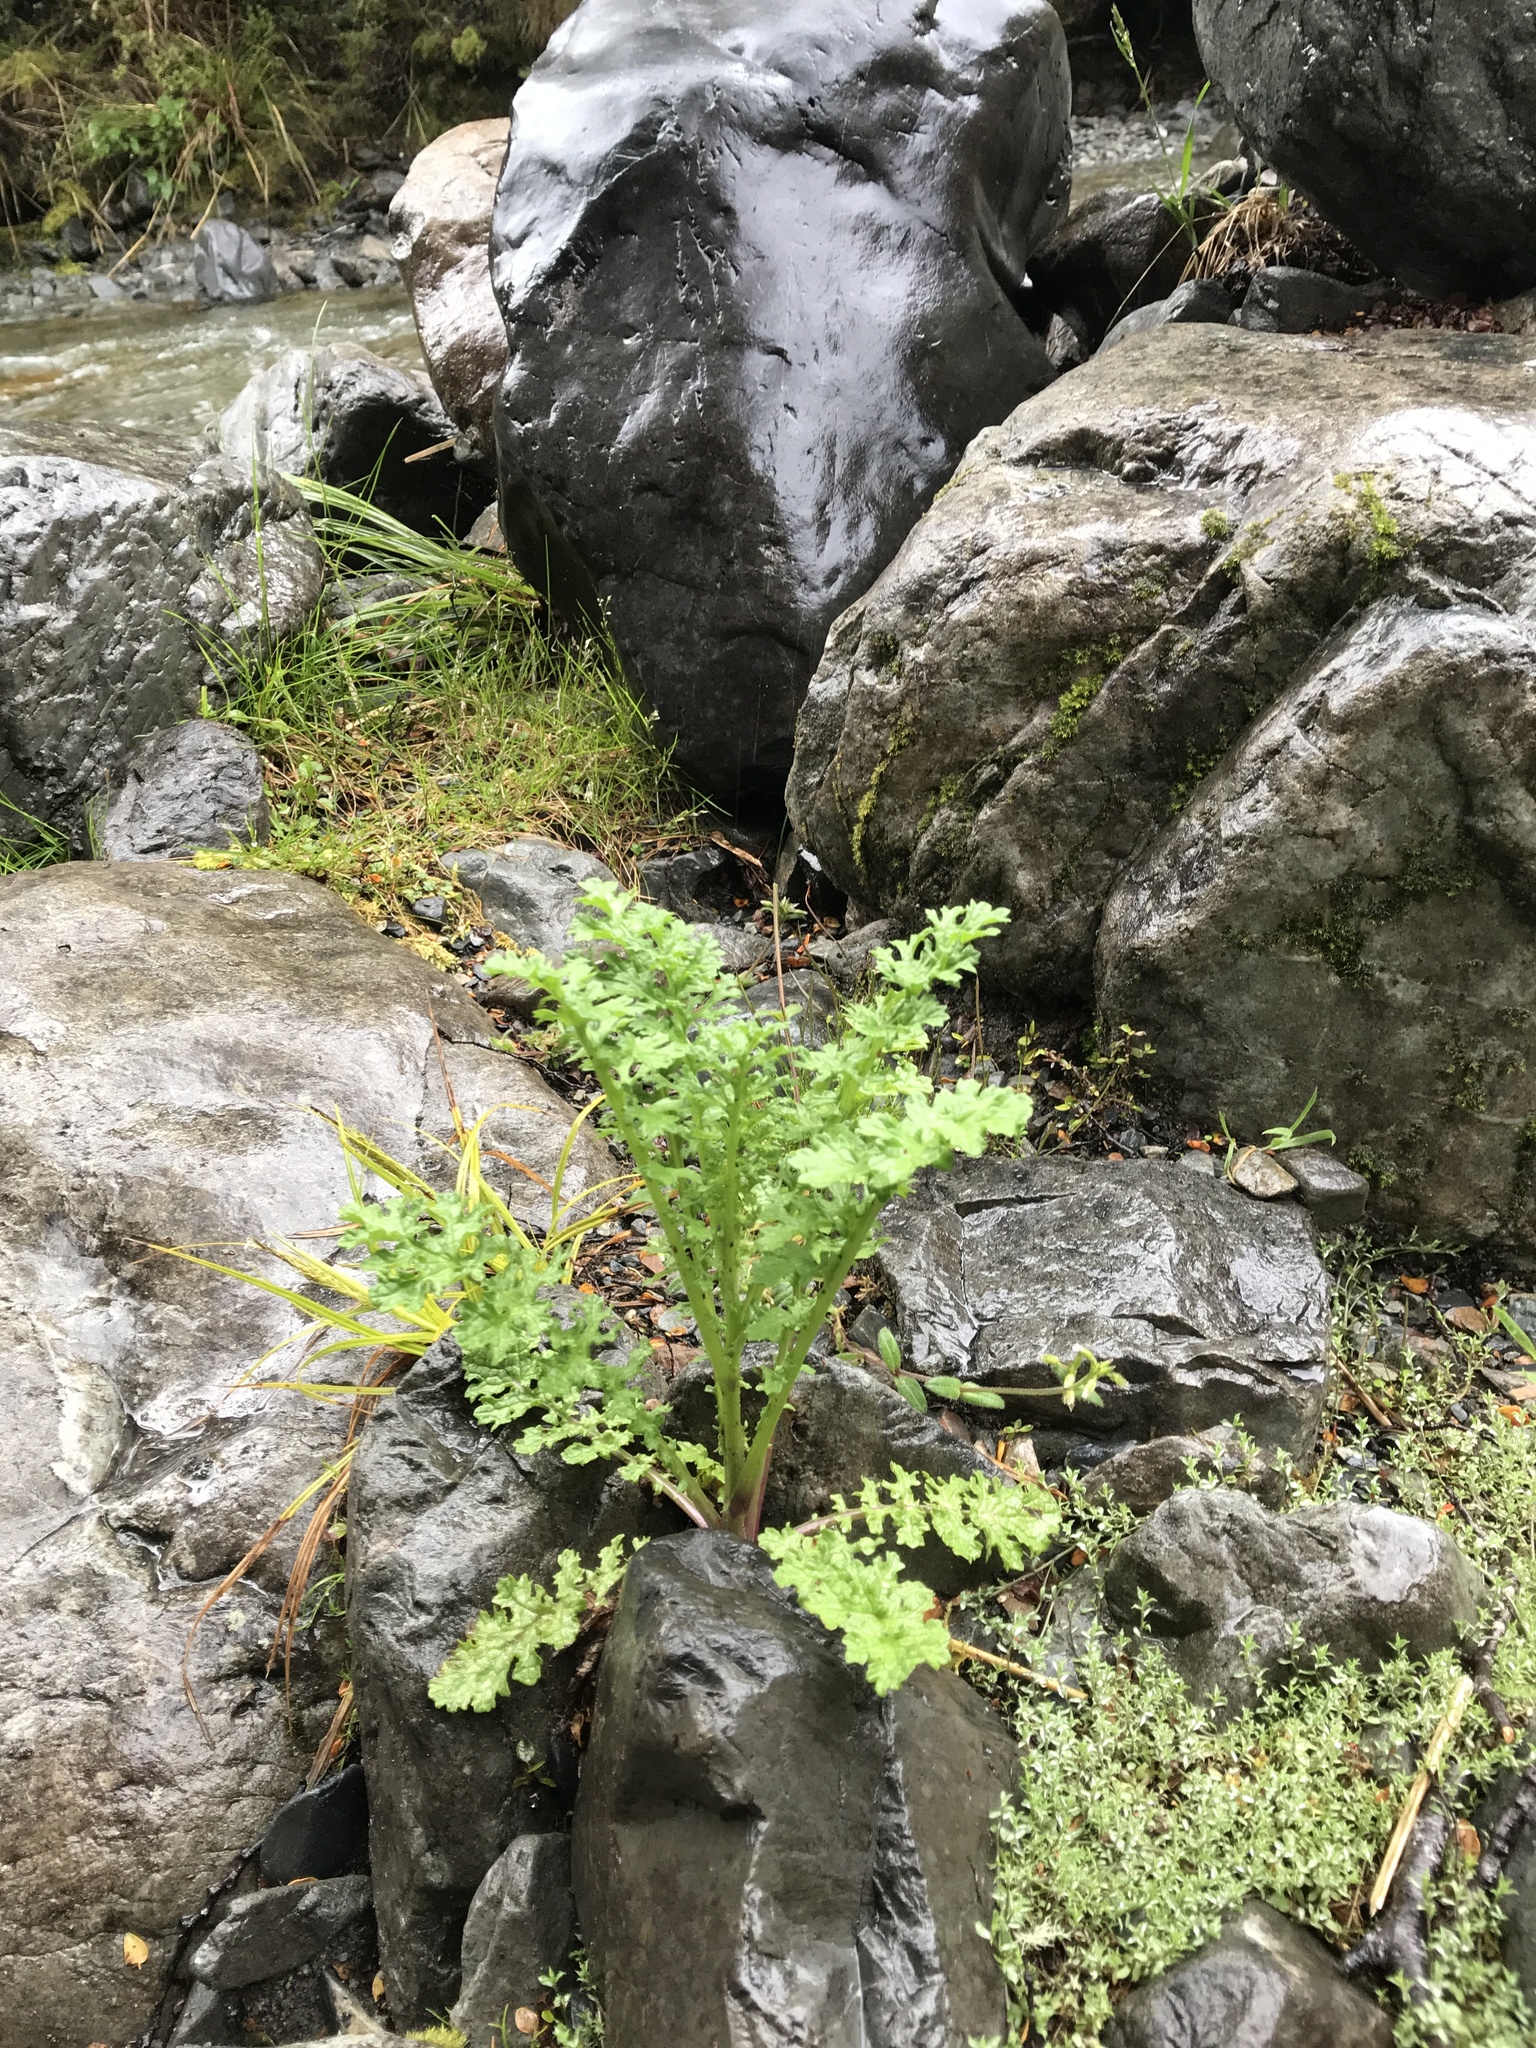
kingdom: Plantae
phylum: Tracheophyta
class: Magnoliopsida
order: Asterales
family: Asteraceae
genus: Jacobaea
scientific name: Jacobaea vulgaris
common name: Stinking willie
